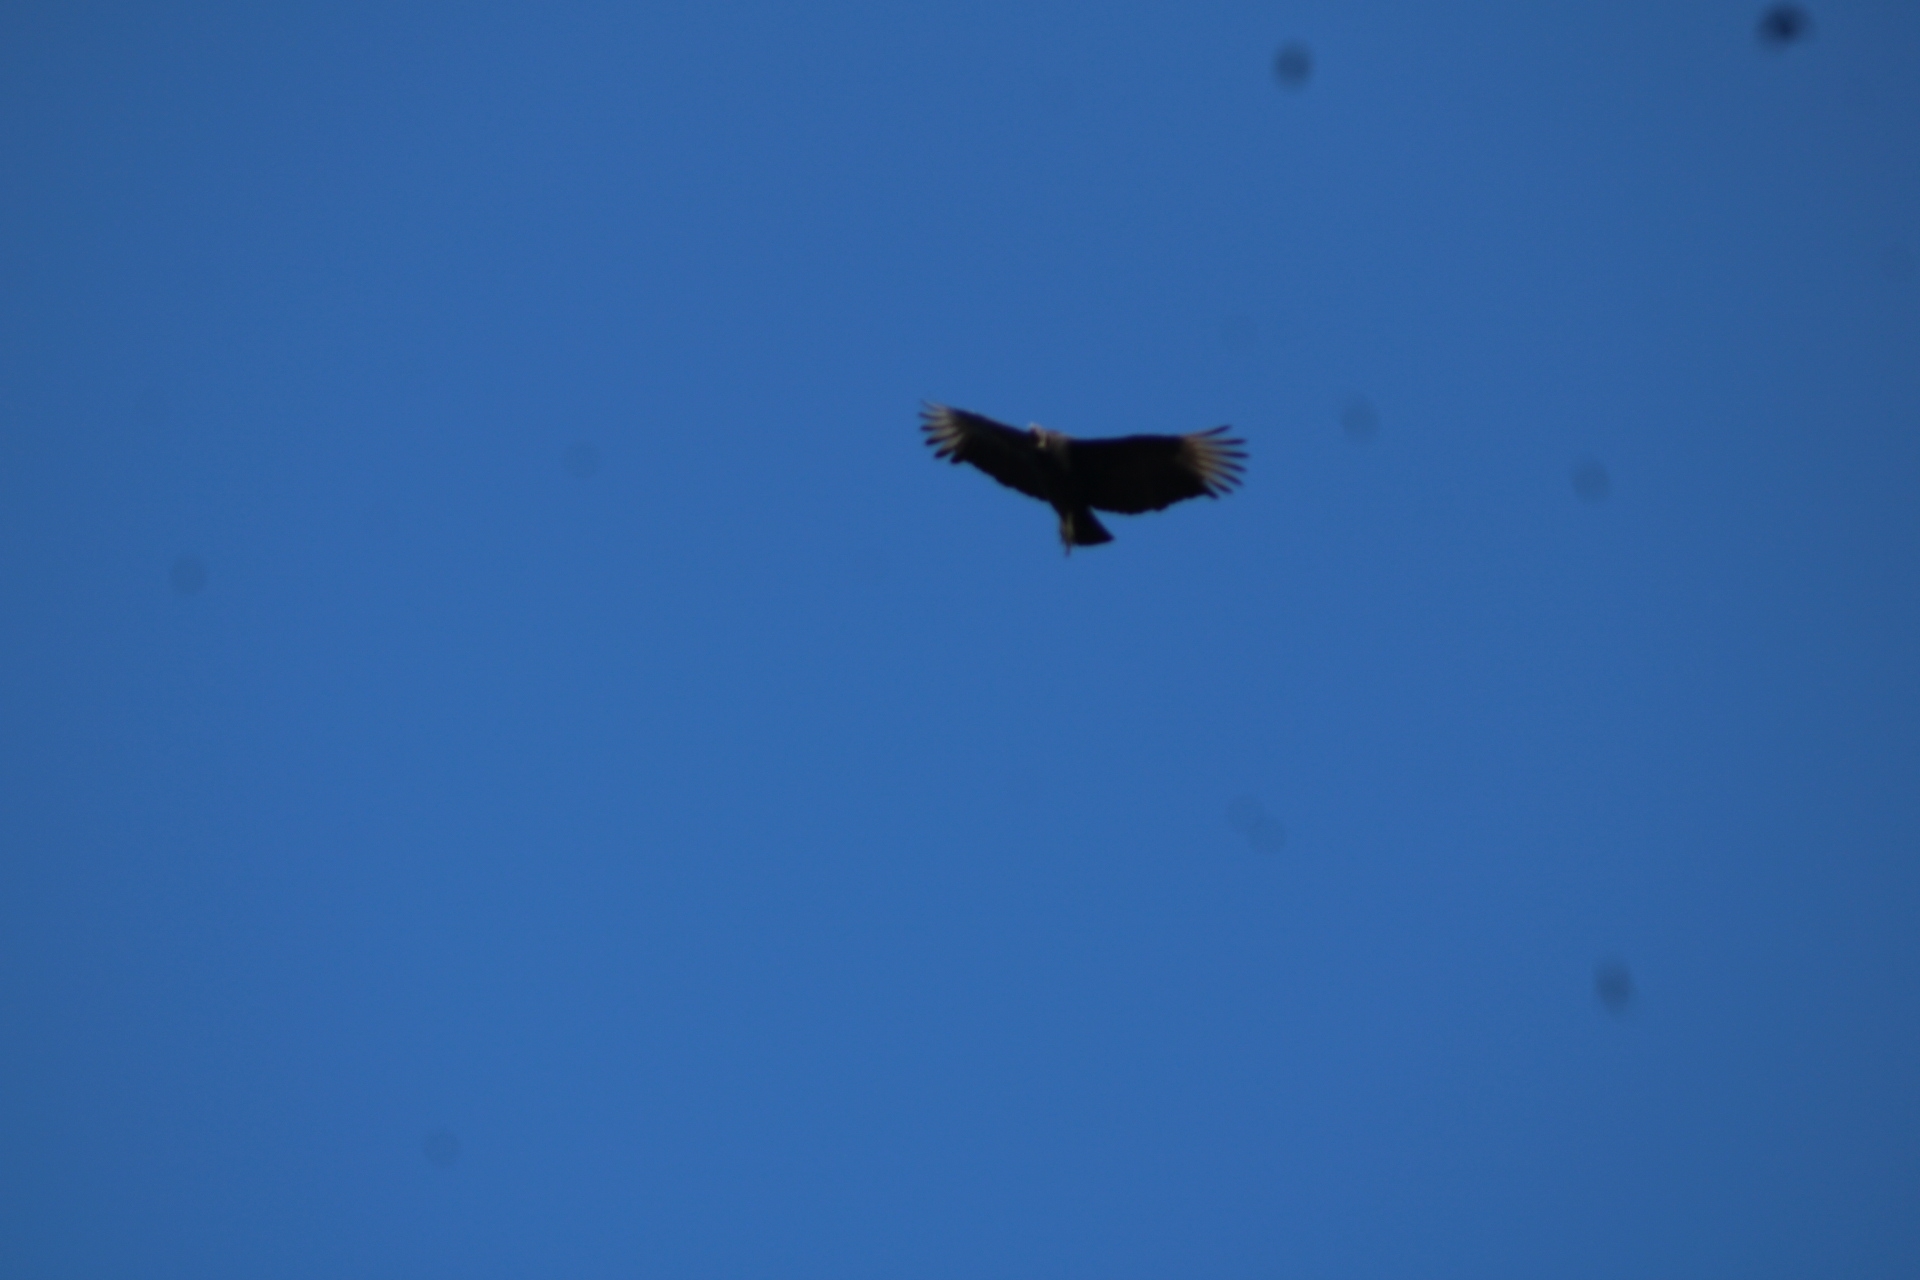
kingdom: Animalia
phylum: Chordata
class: Aves
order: Accipitriformes
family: Cathartidae
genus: Coragyps
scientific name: Coragyps atratus
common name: Black vulture
